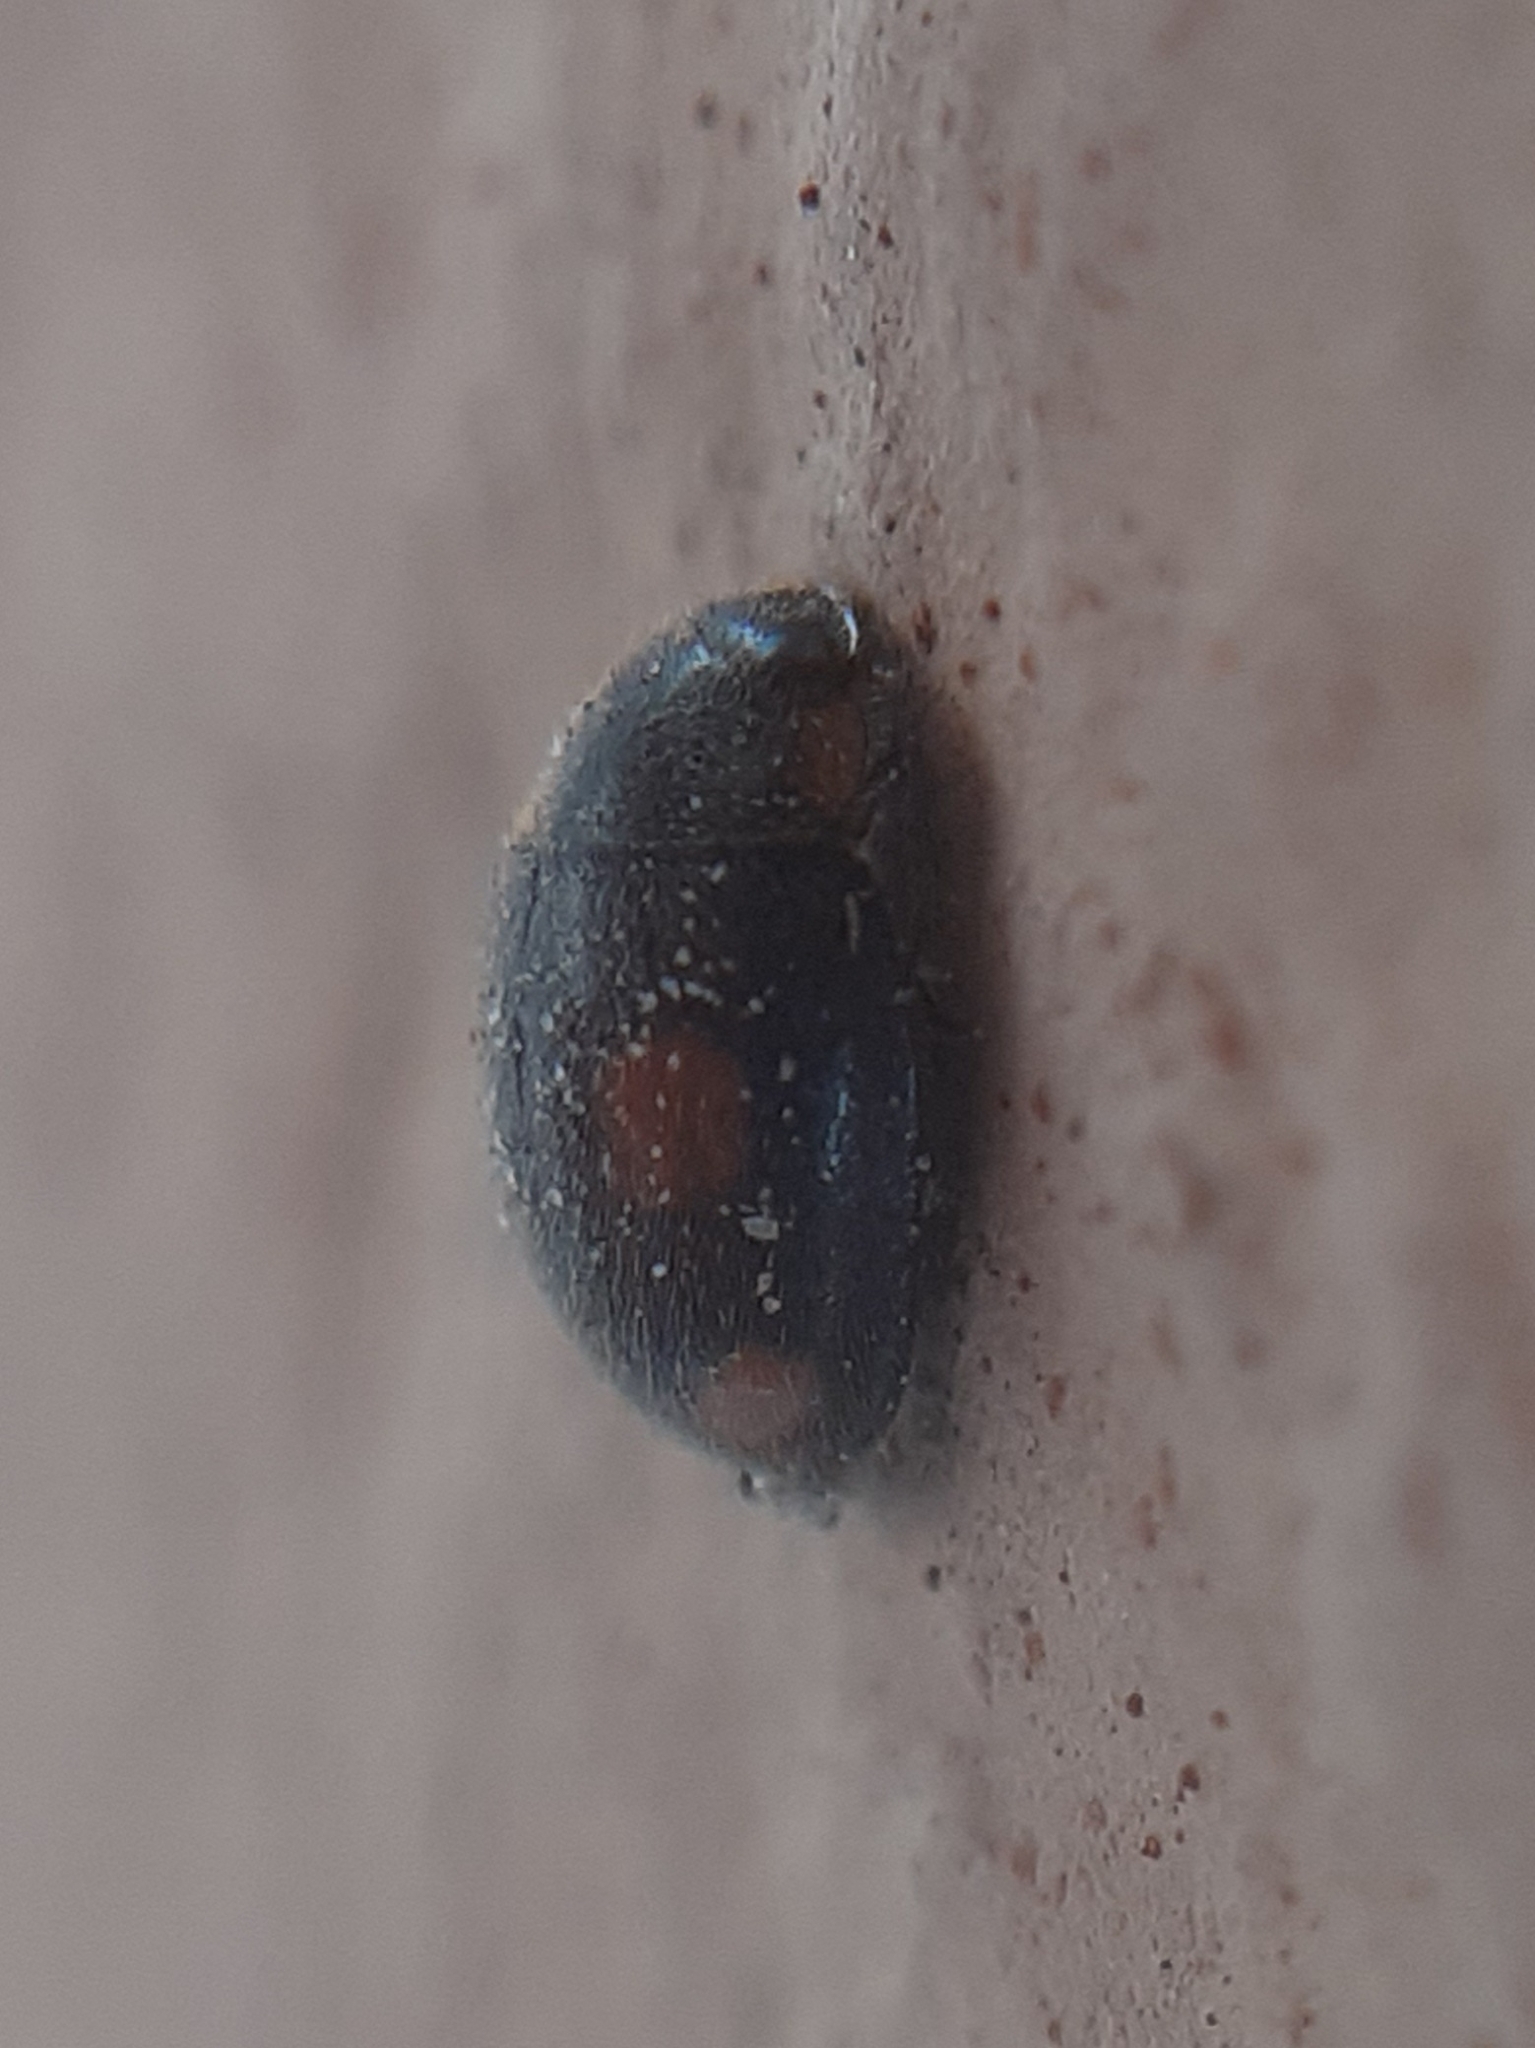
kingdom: Animalia
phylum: Arthropoda
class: Insecta
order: Coleoptera
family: Coccinellidae
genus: Platynaspis
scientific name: Platynaspis luteorubra
